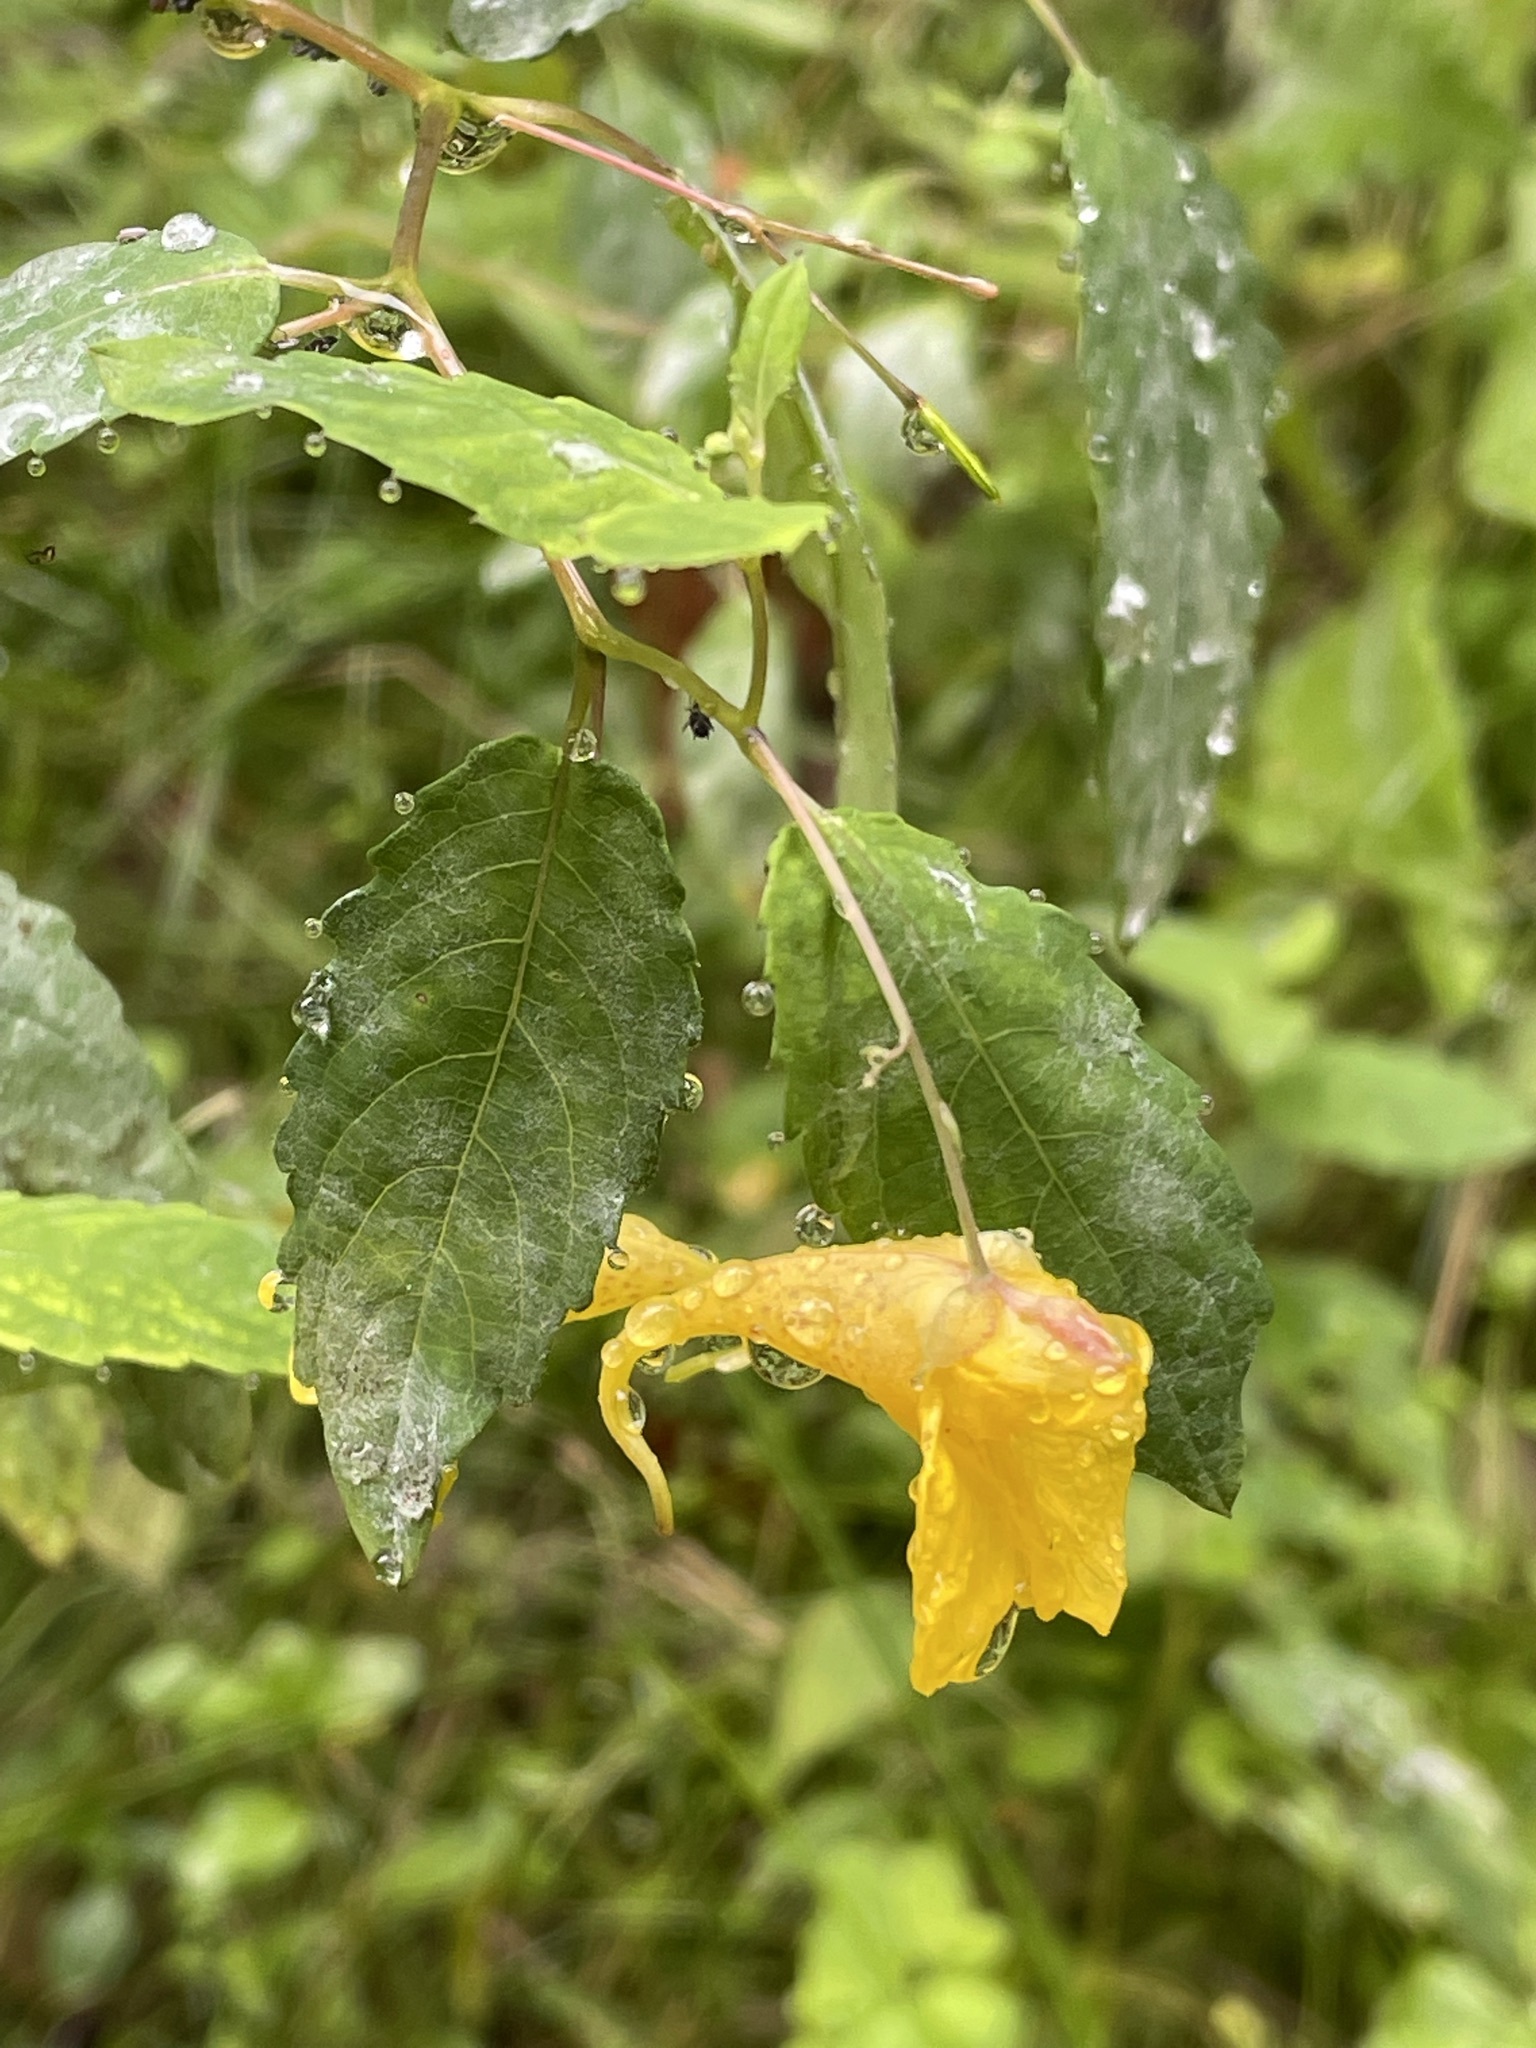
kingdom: Plantae
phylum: Tracheophyta
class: Magnoliopsida
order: Ericales
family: Balsaminaceae
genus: Impatiens
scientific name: Impatiens noli-tangere
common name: Touch-me-not balsam
